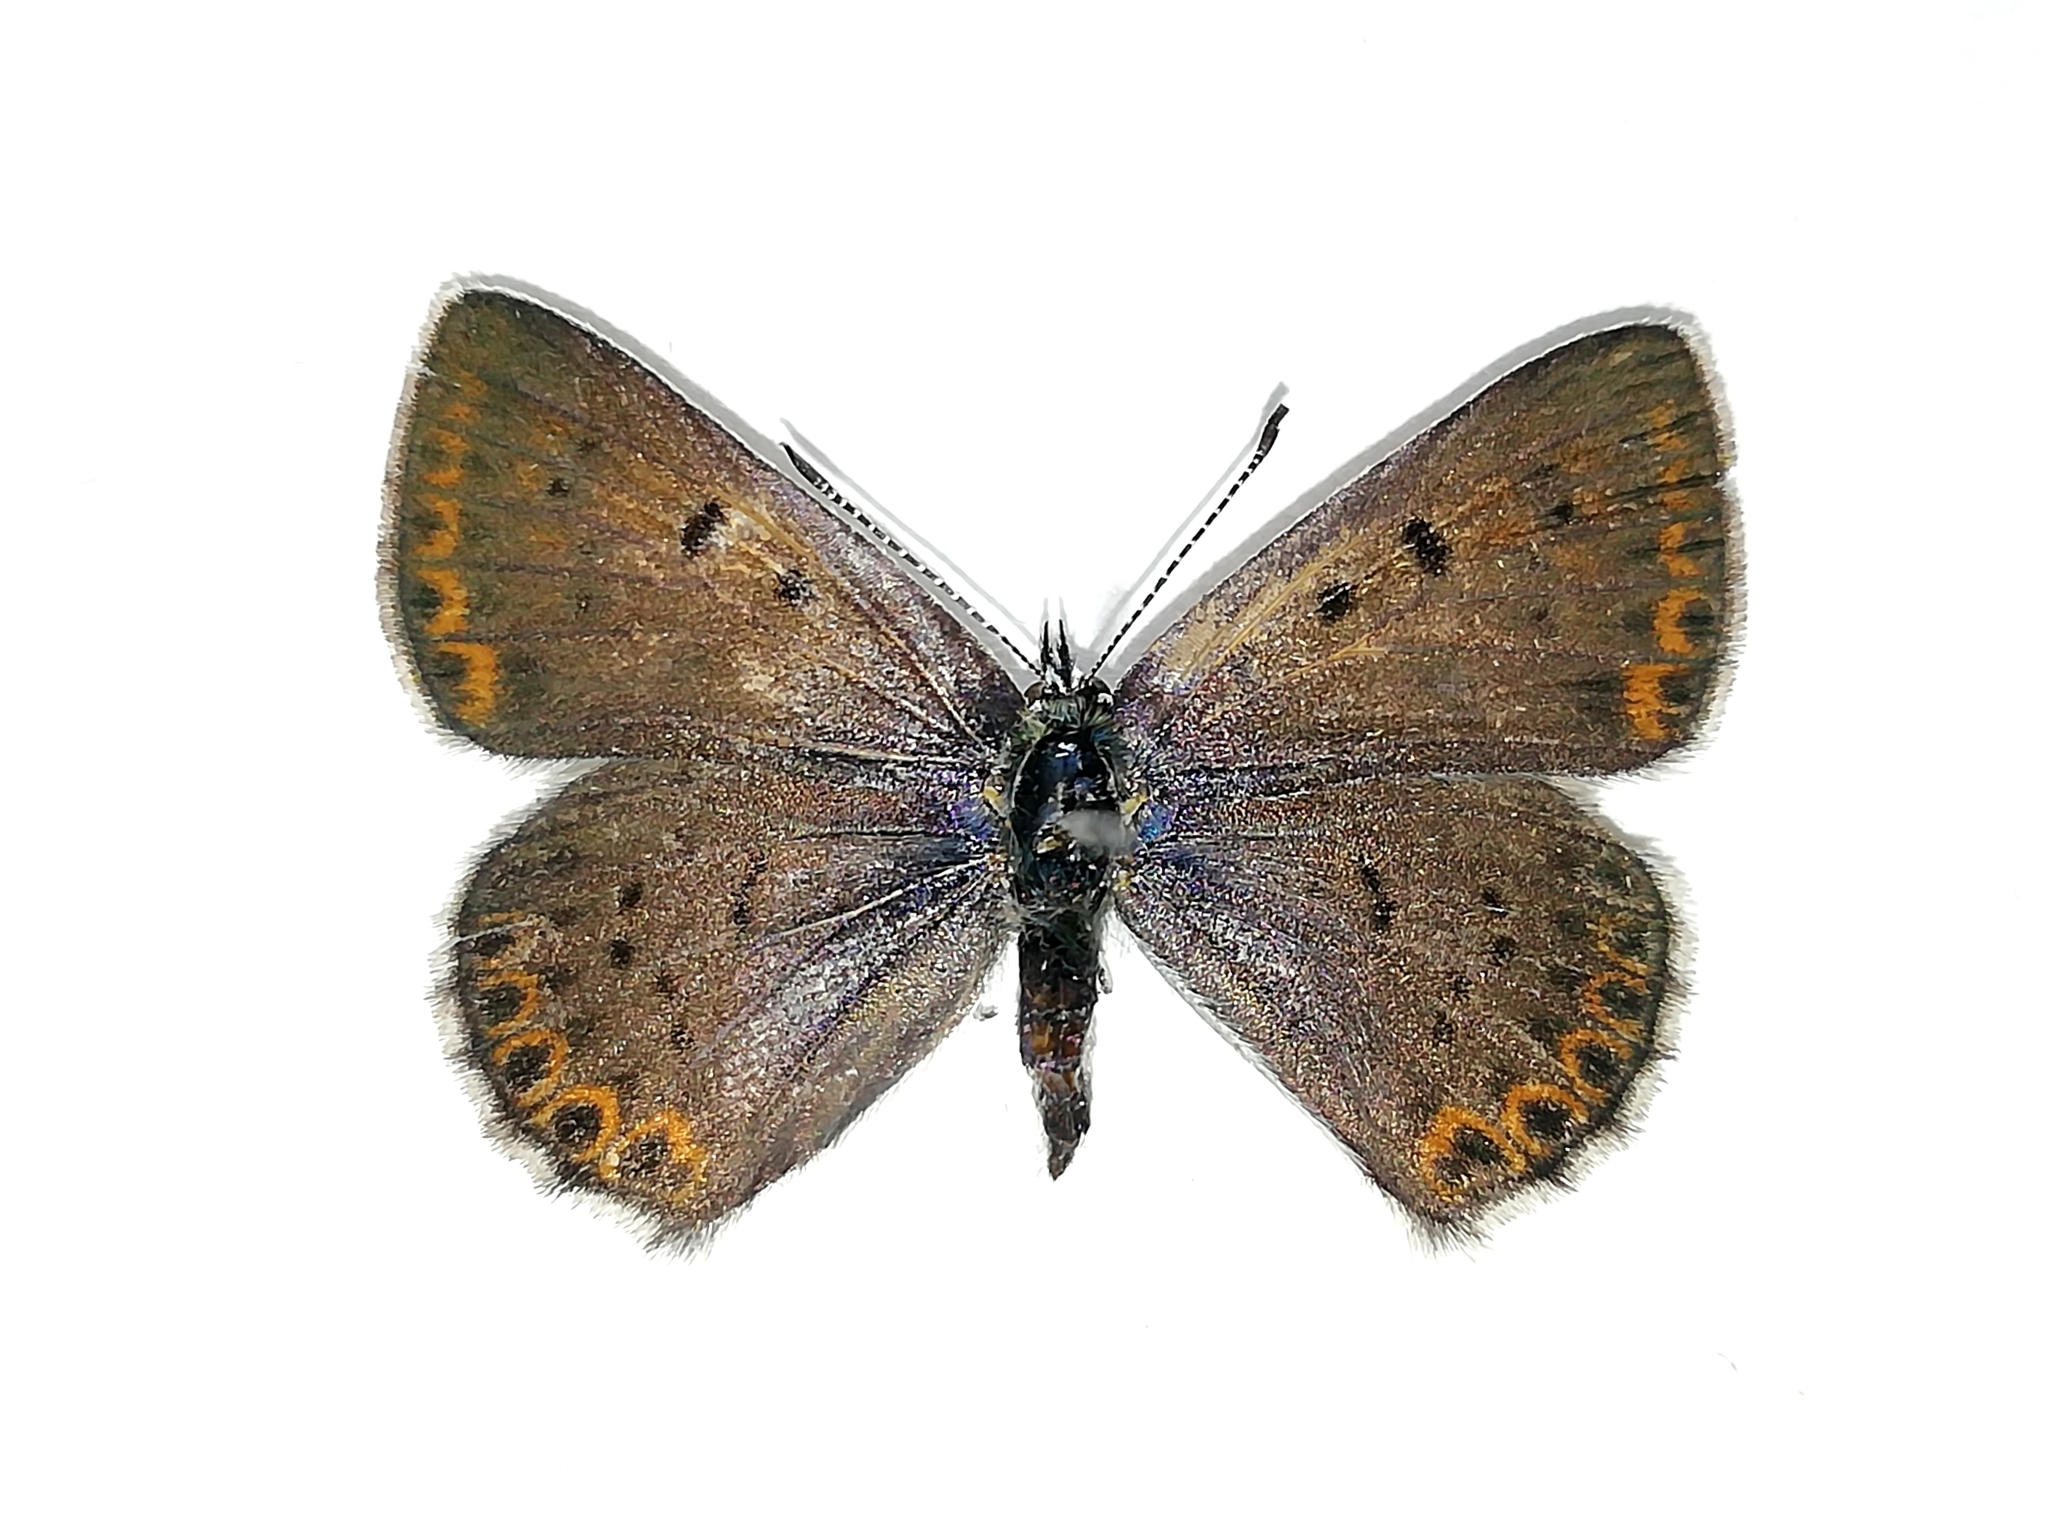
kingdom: Animalia
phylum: Arthropoda
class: Insecta
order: Lepidoptera
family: Lycaenidae
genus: Loweia
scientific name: Loweia tityrus
